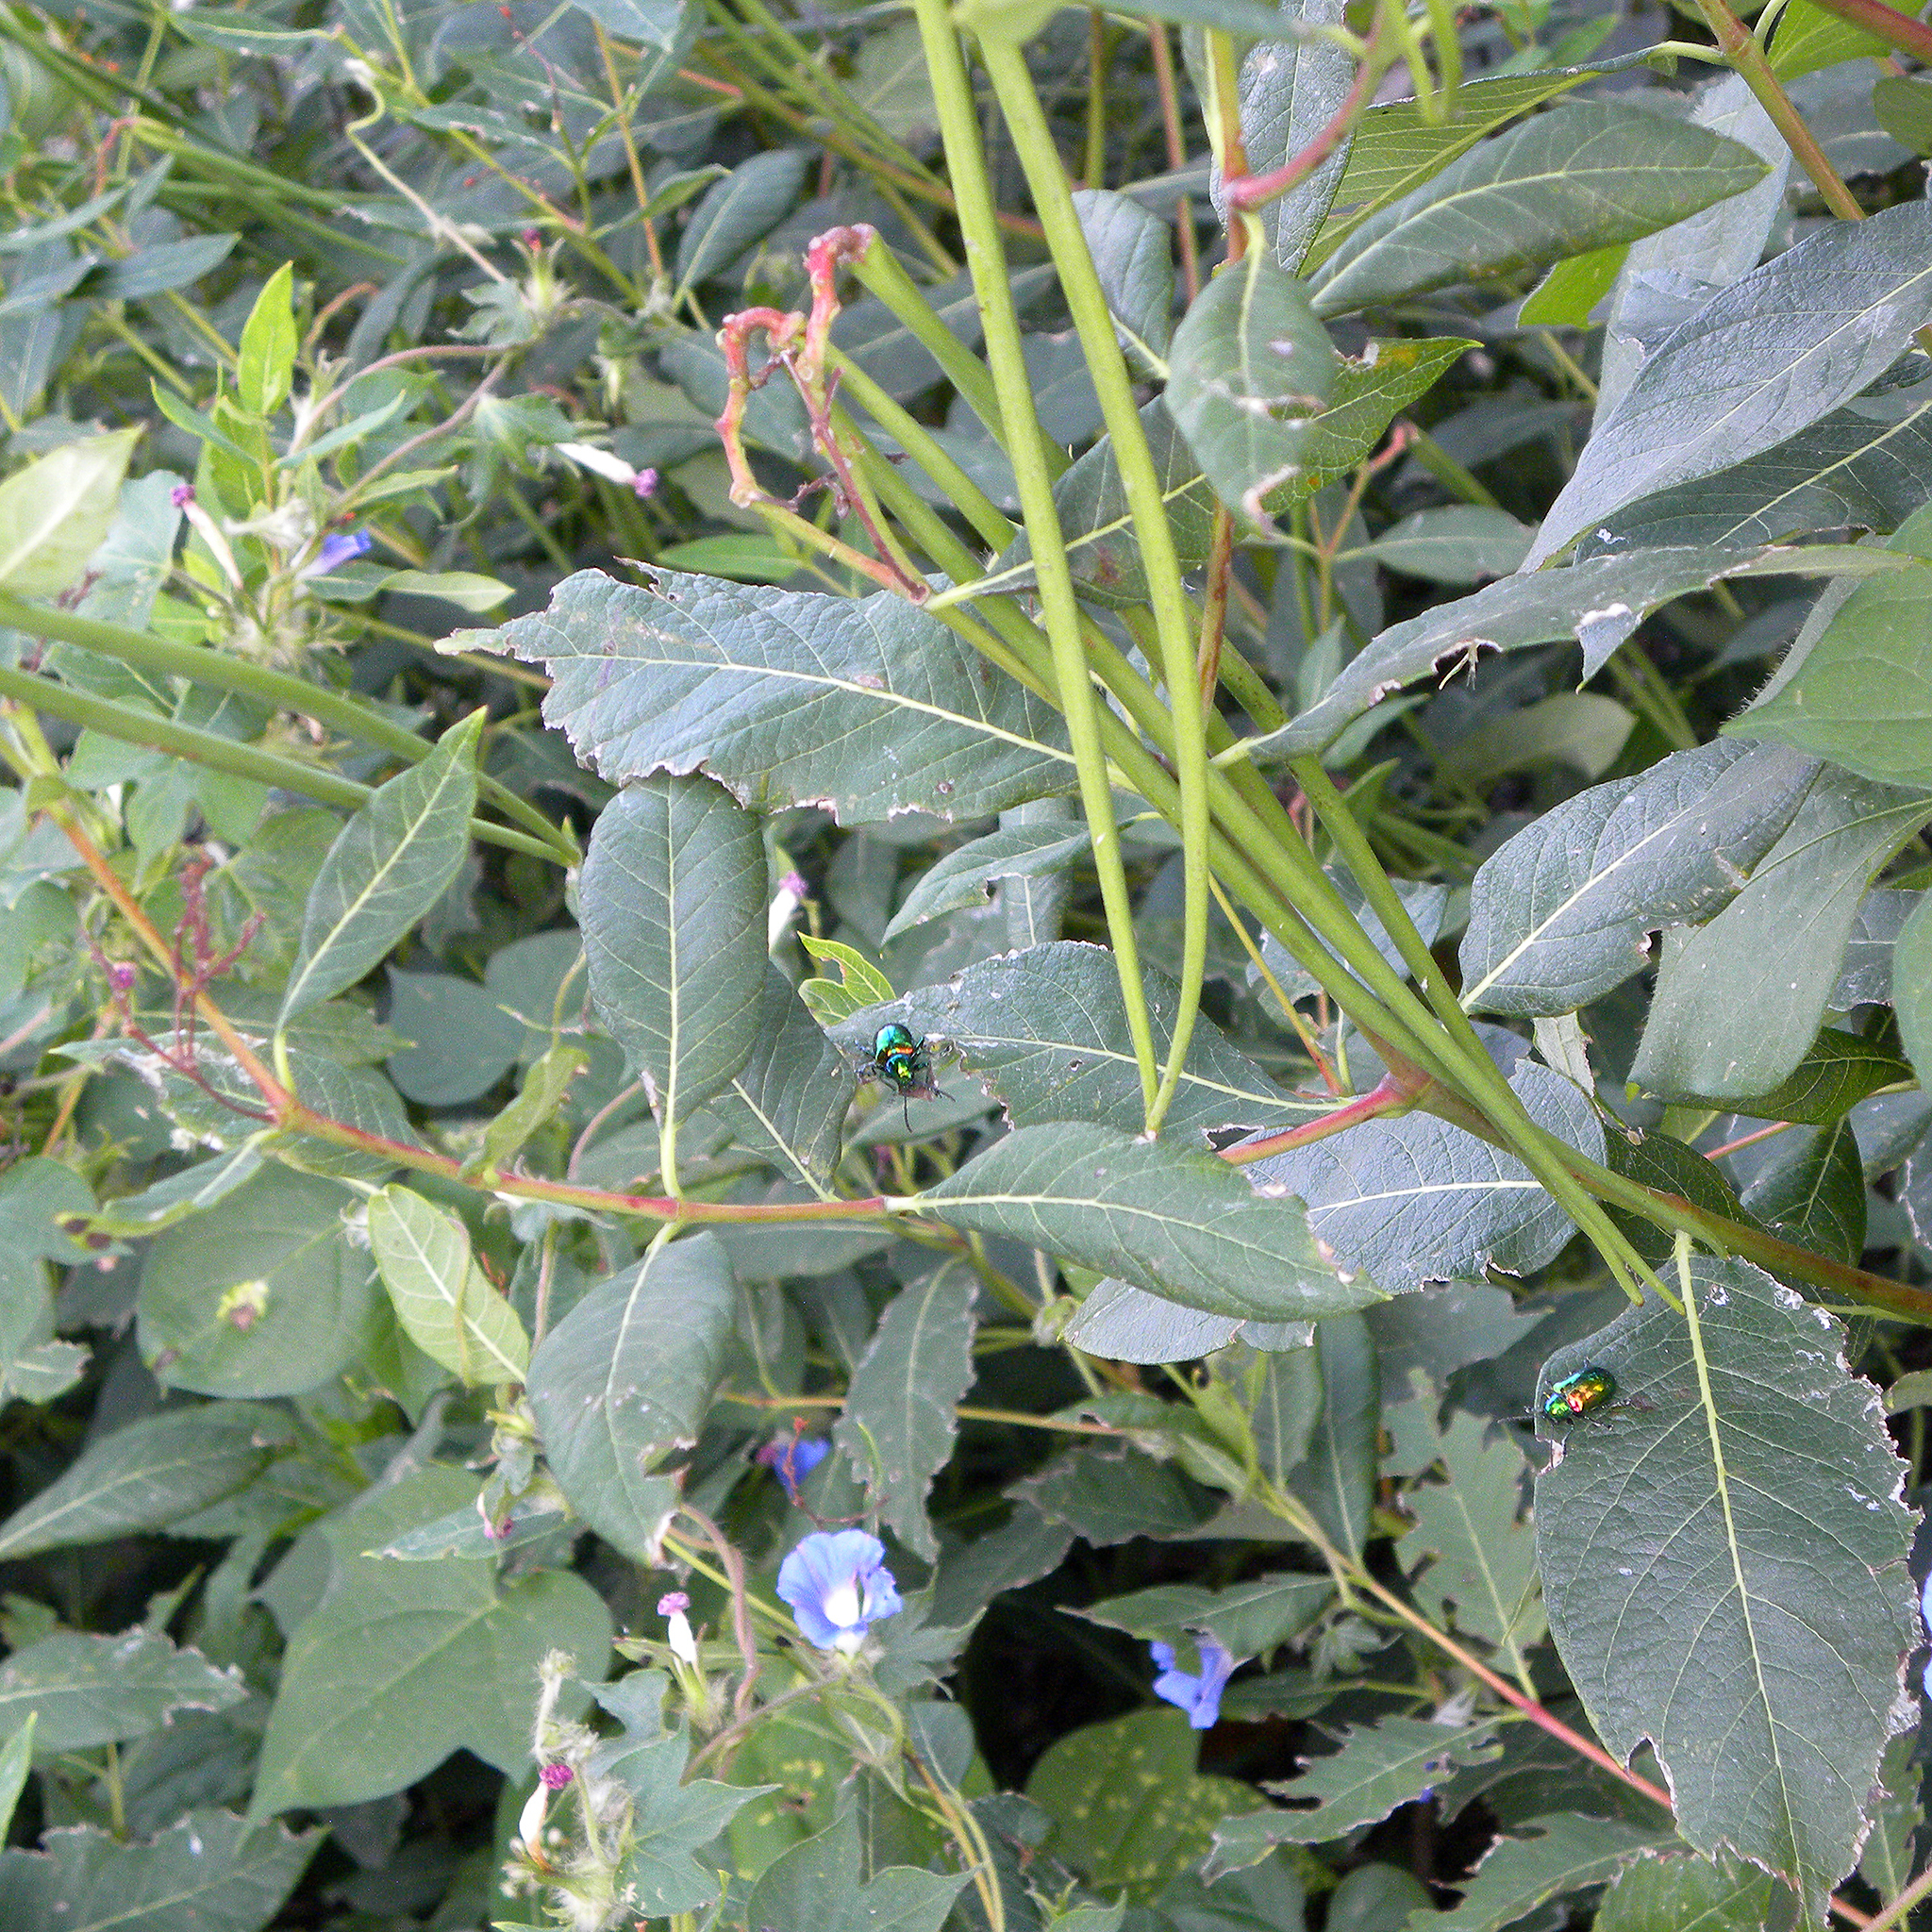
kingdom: Plantae
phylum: Tracheophyta
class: Magnoliopsida
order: Gentianales
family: Apocynaceae
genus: Apocynum
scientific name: Apocynum cannabinum
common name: Hemp dogbane
